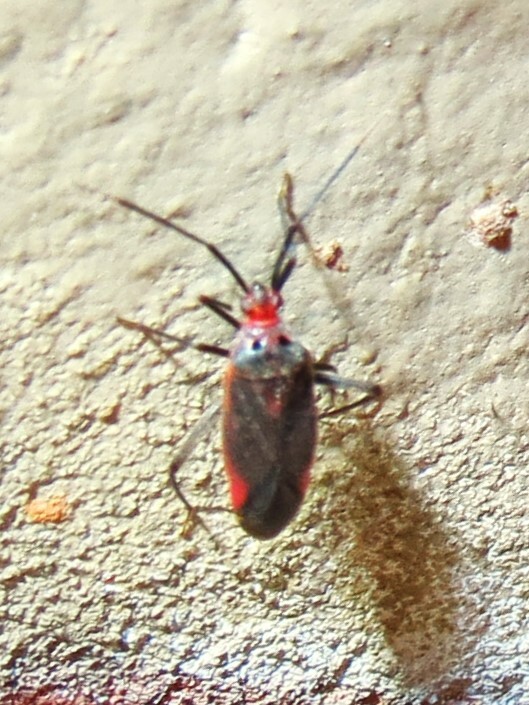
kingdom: Animalia
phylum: Arthropoda
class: Insecta
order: Hemiptera
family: Miridae
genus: Taedia
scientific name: Taedia johnstoni
